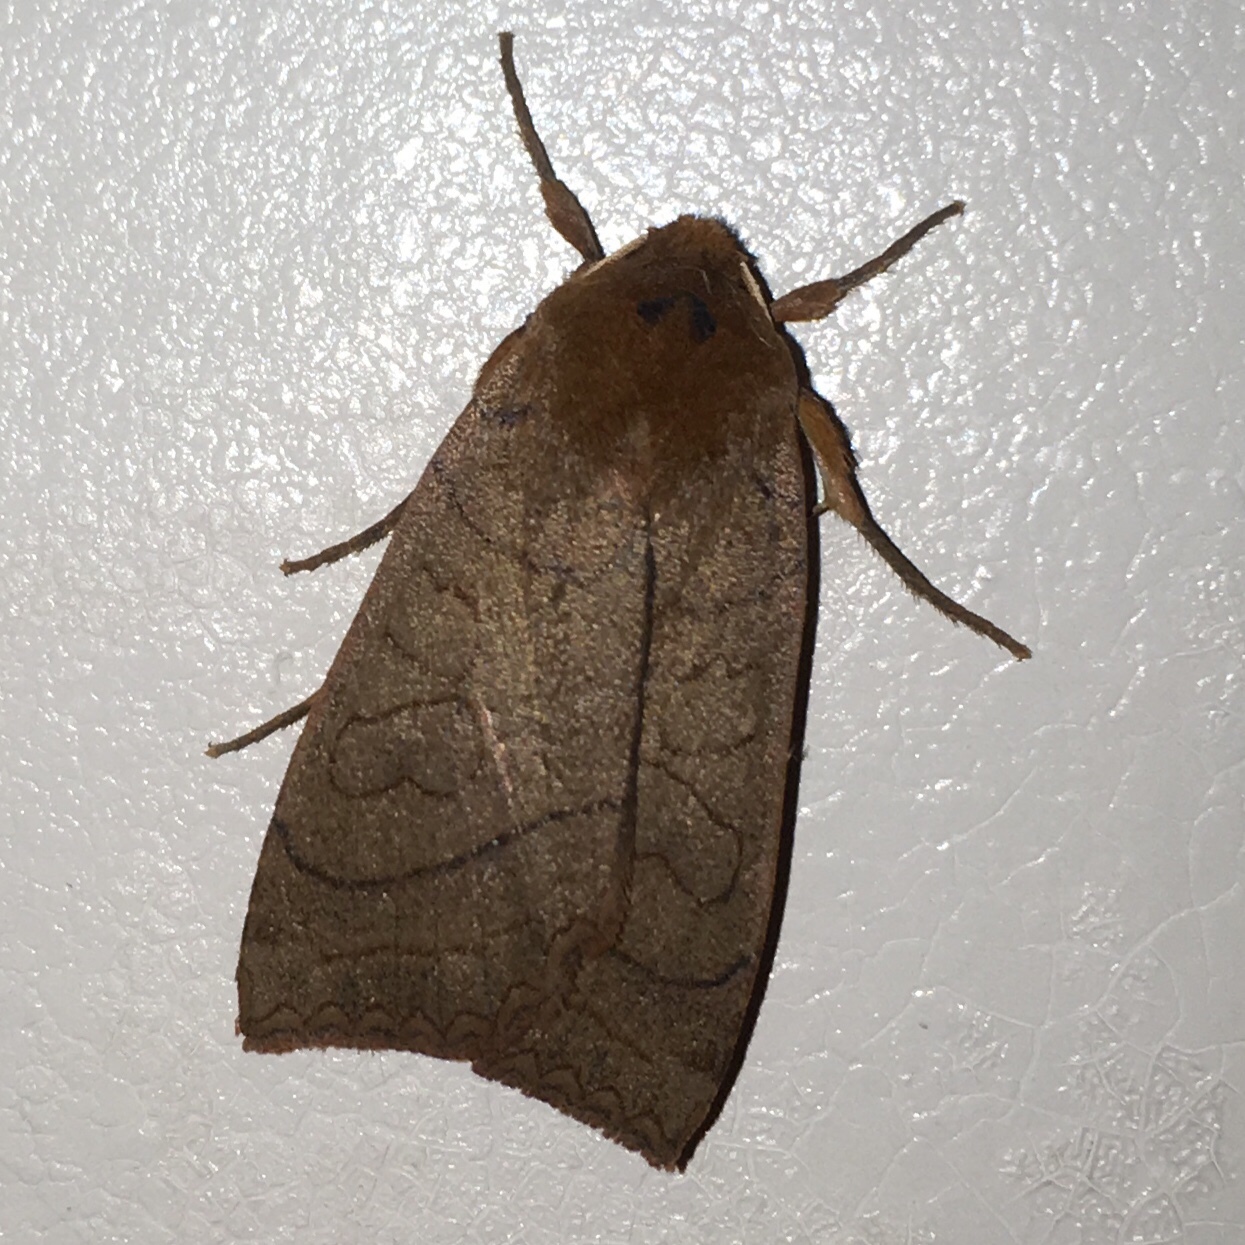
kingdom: Animalia
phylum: Arthropoda
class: Insecta
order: Lepidoptera
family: Noctuidae
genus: Metaxaglaea
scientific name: Metaxaglaea inulta
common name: Unsated sallow
